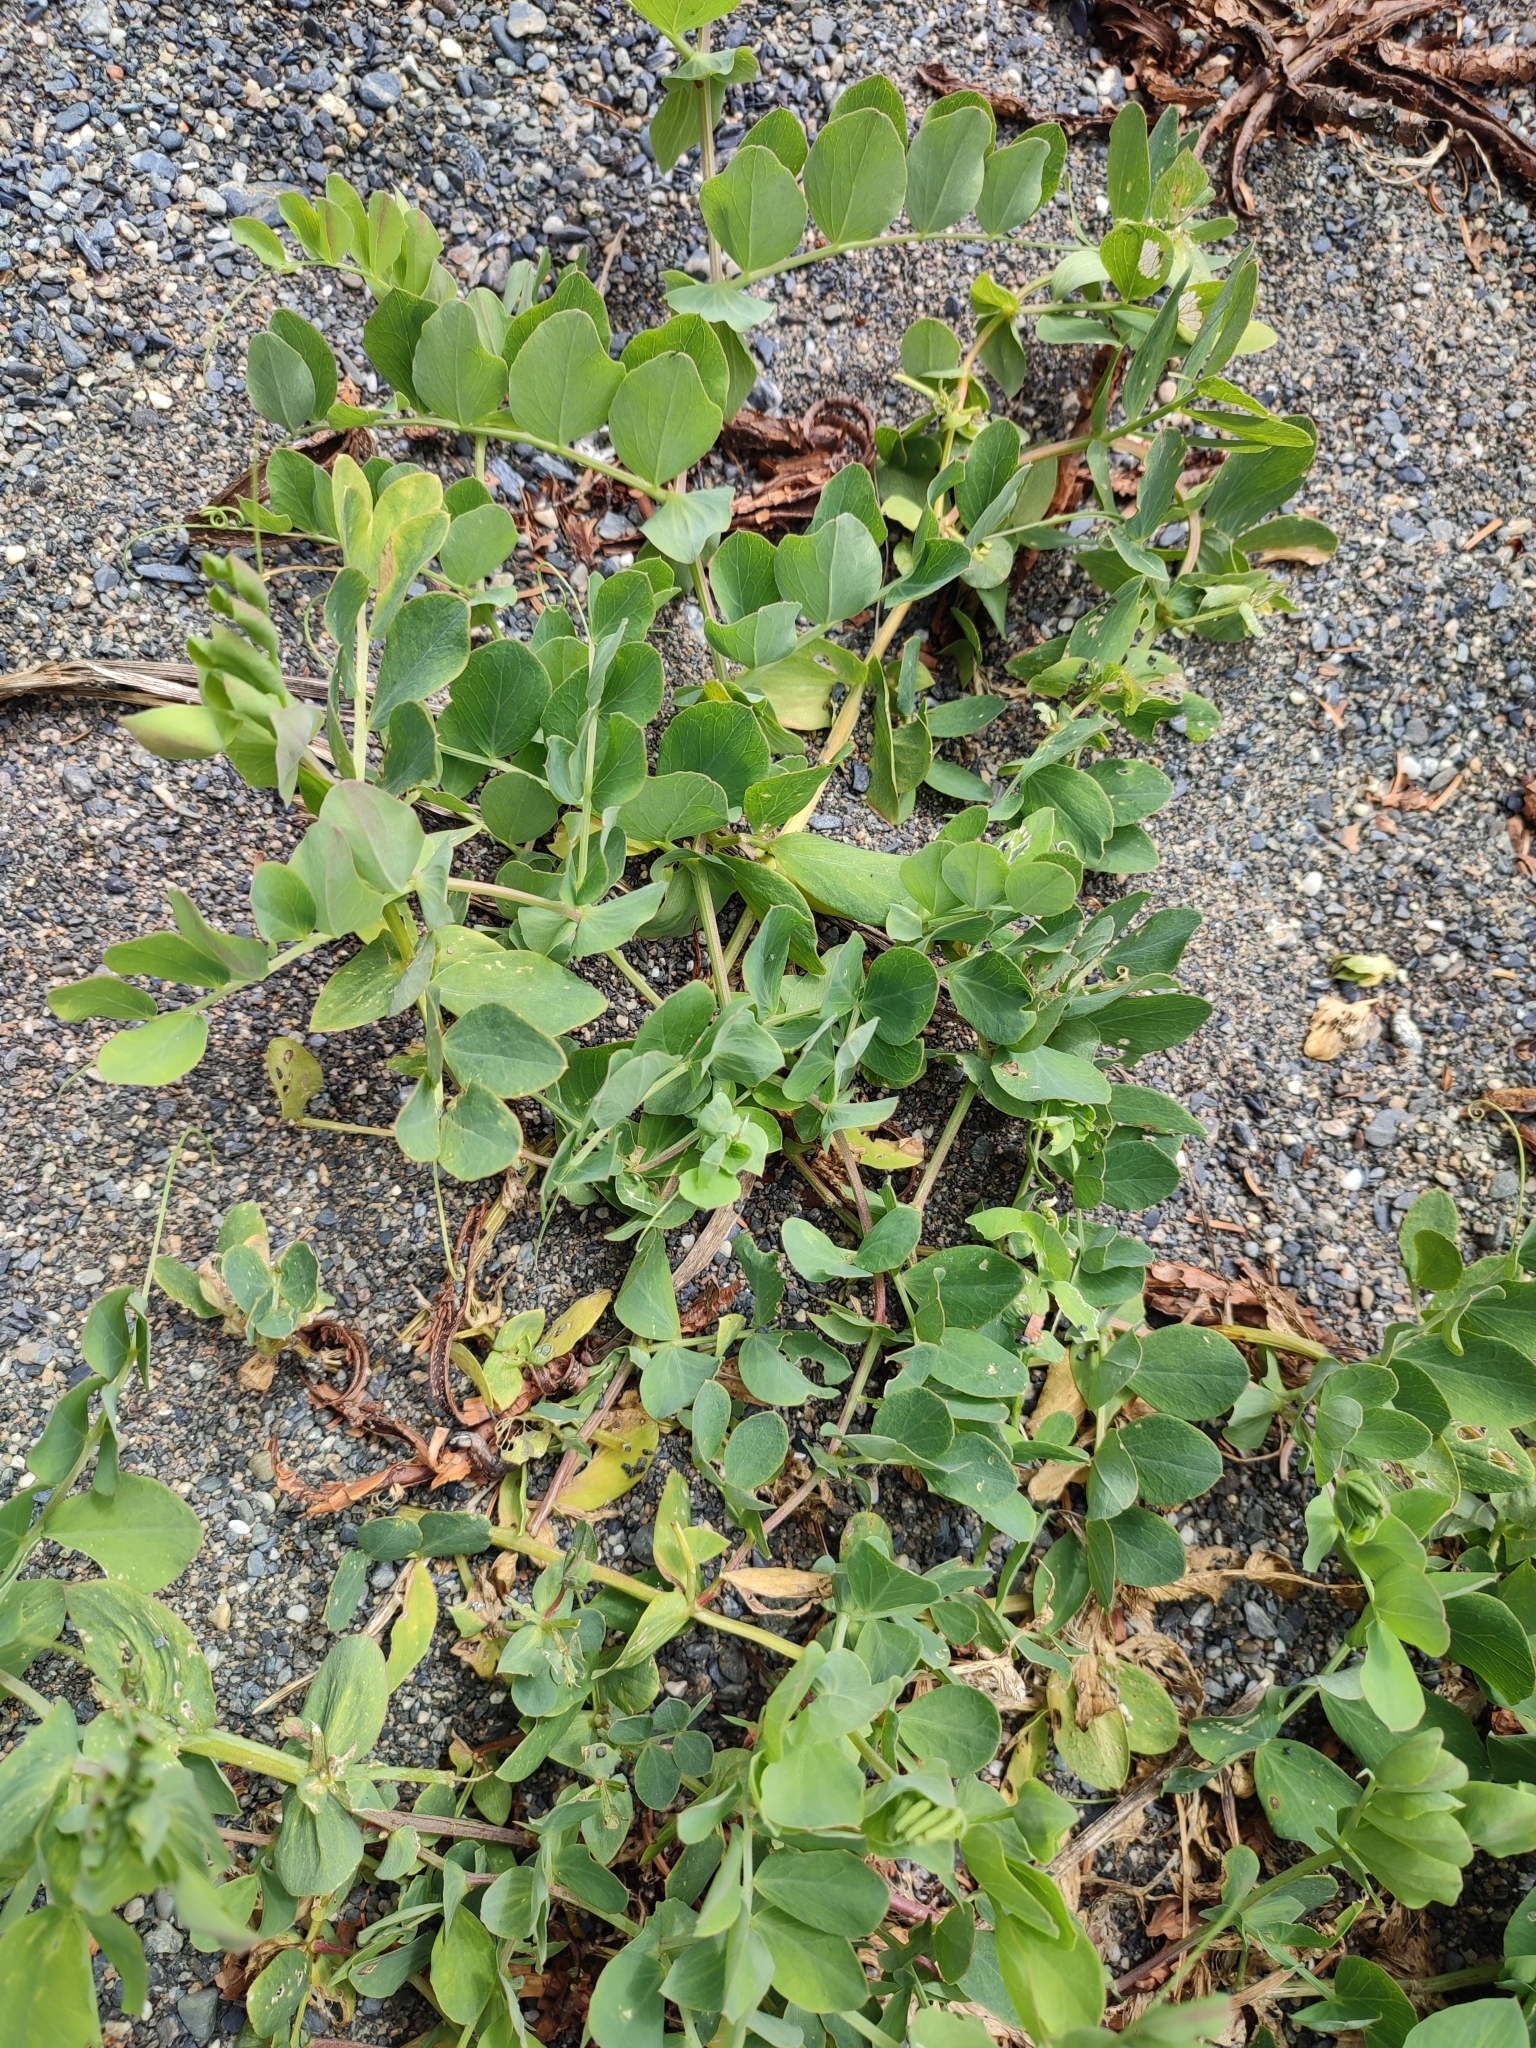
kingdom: Plantae
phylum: Tracheophyta
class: Magnoliopsida
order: Fabales
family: Fabaceae
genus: Lathyrus
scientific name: Lathyrus japonicus
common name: Sea pea
